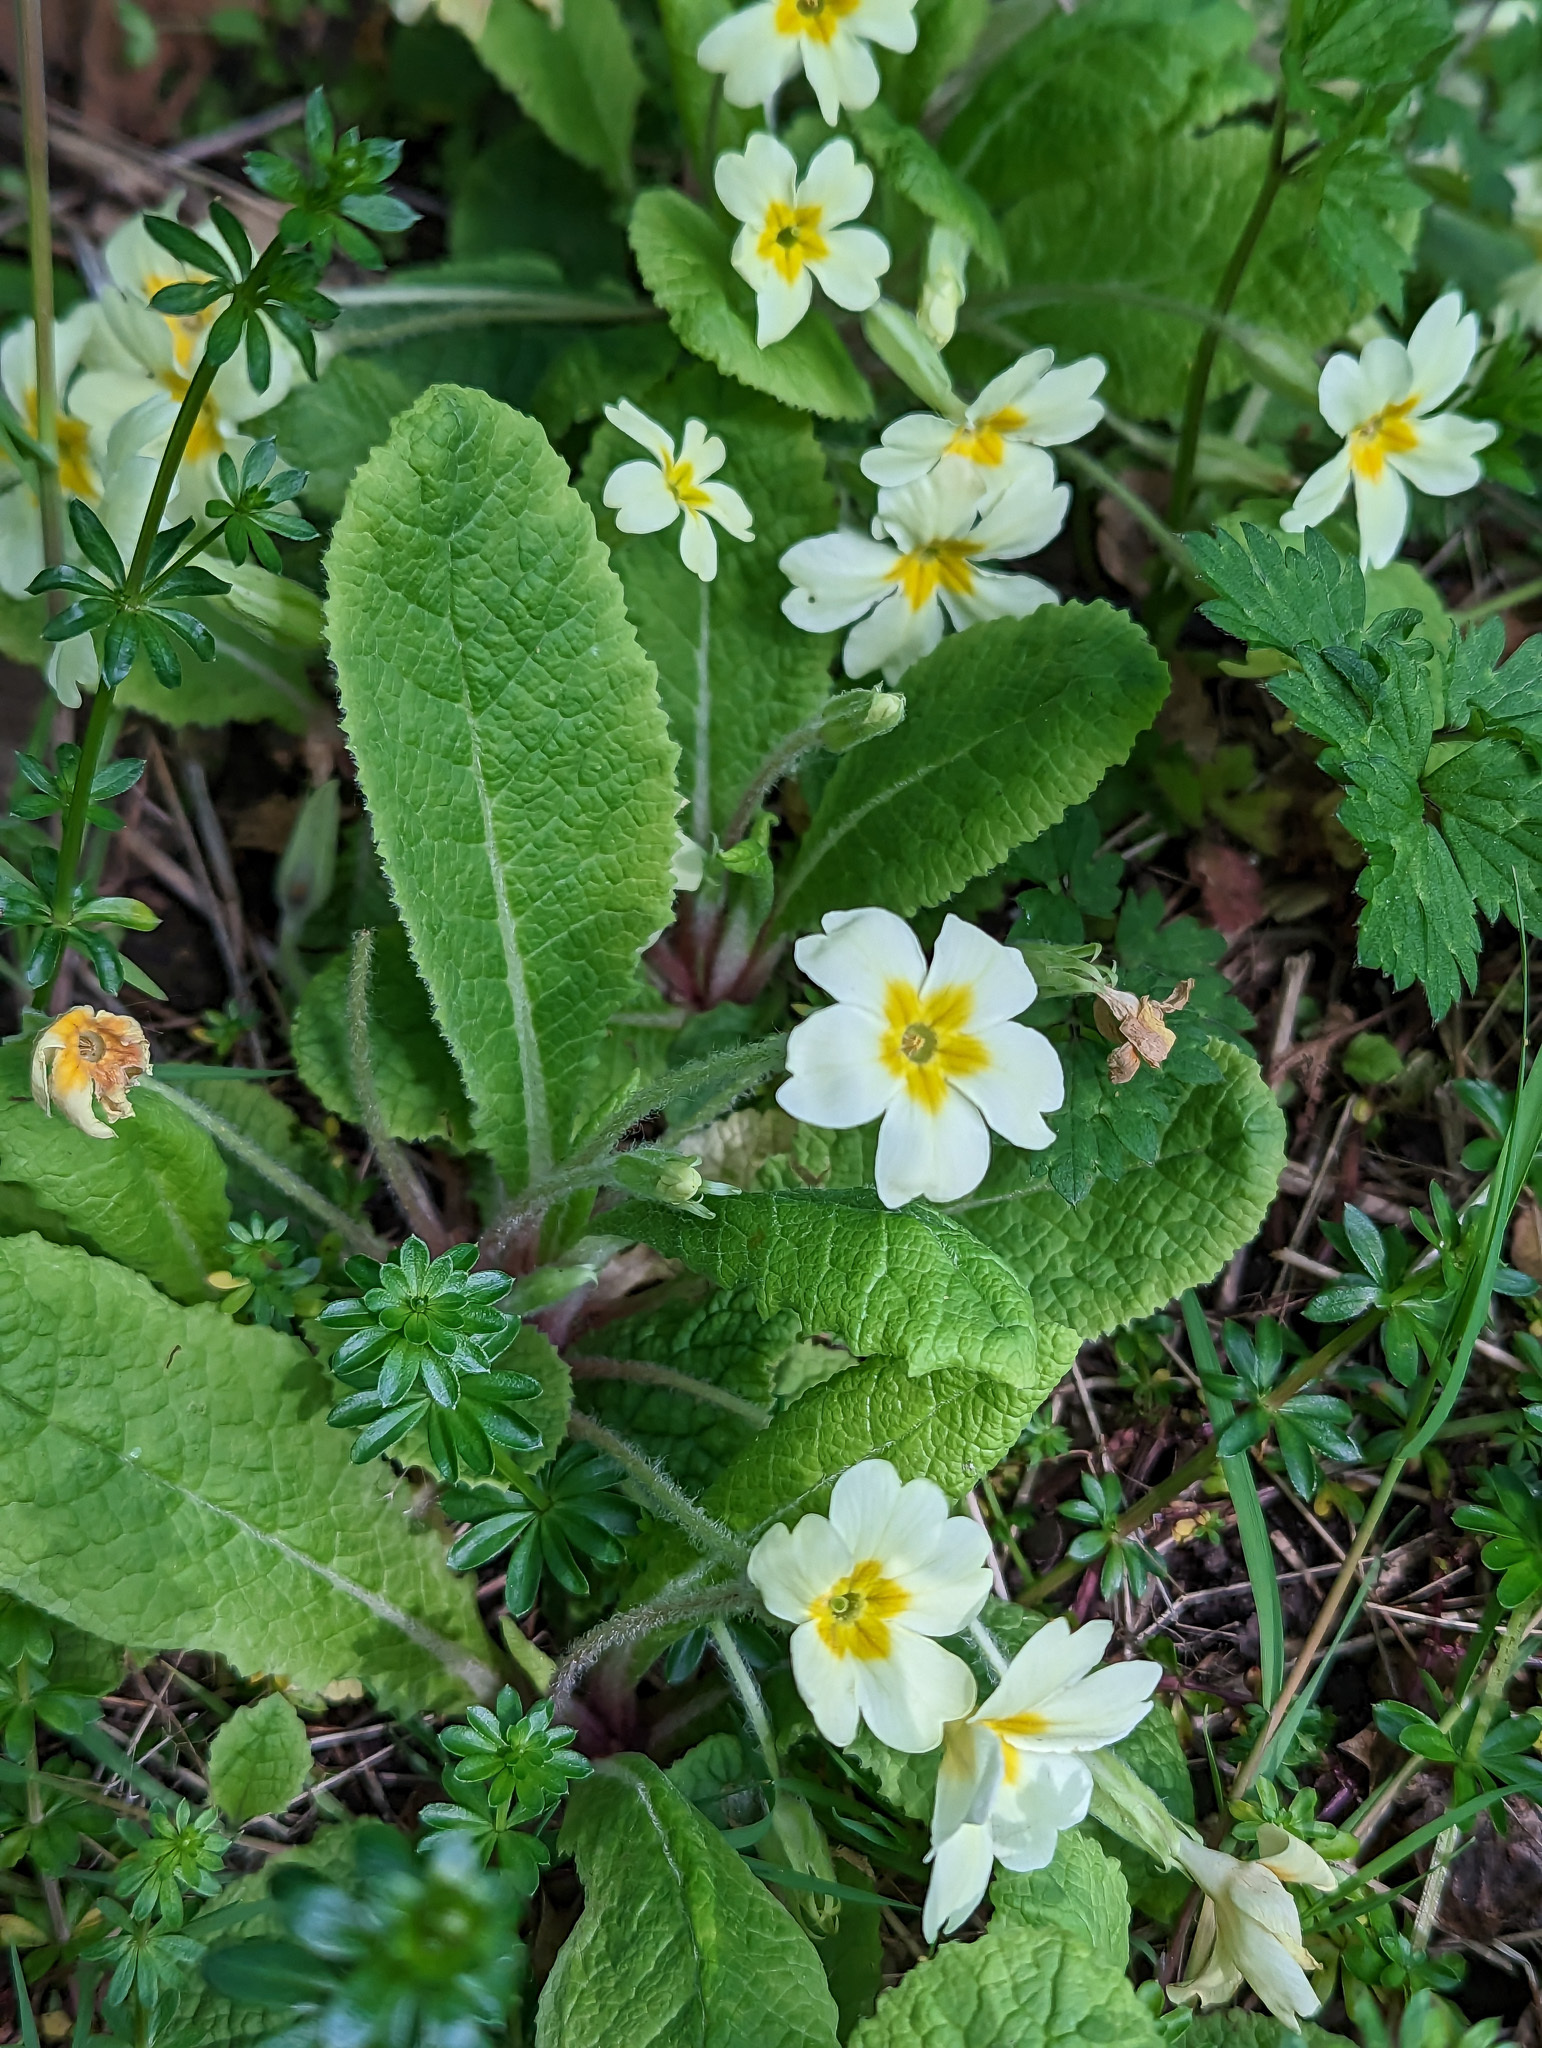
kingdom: Plantae
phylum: Tracheophyta
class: Magnoliopsida
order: Ericales
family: Primulaceae
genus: Primula
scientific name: Primula vulgaris
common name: Primrose
